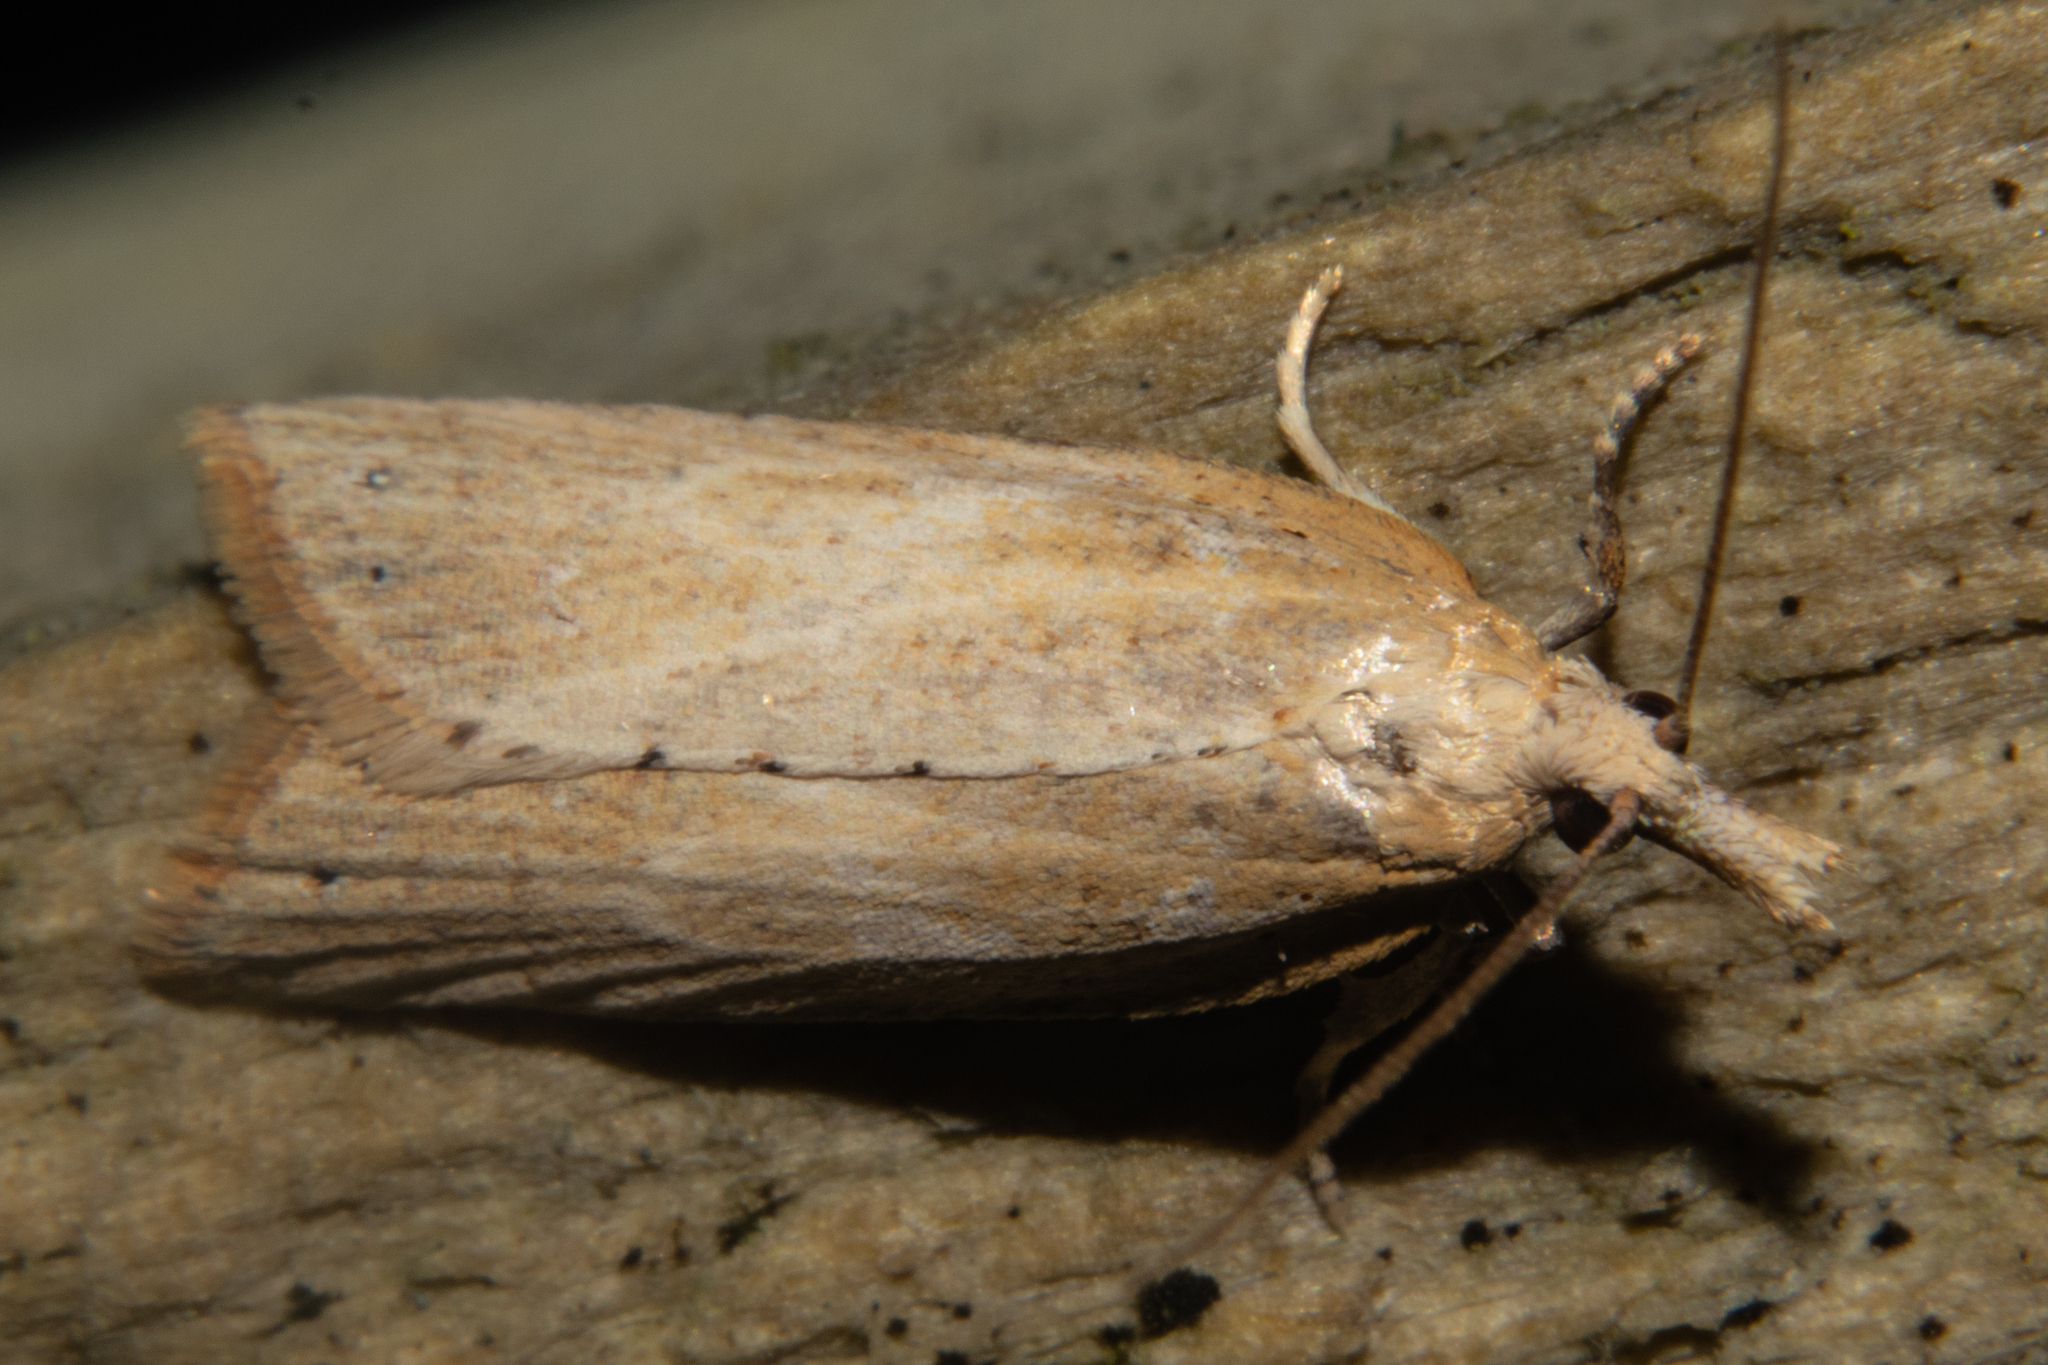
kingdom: Animalia
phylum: Arthropoda
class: Insecta
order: Lepidoptera
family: Tortricidae
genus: Apoctena
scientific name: Apoctena persecta
